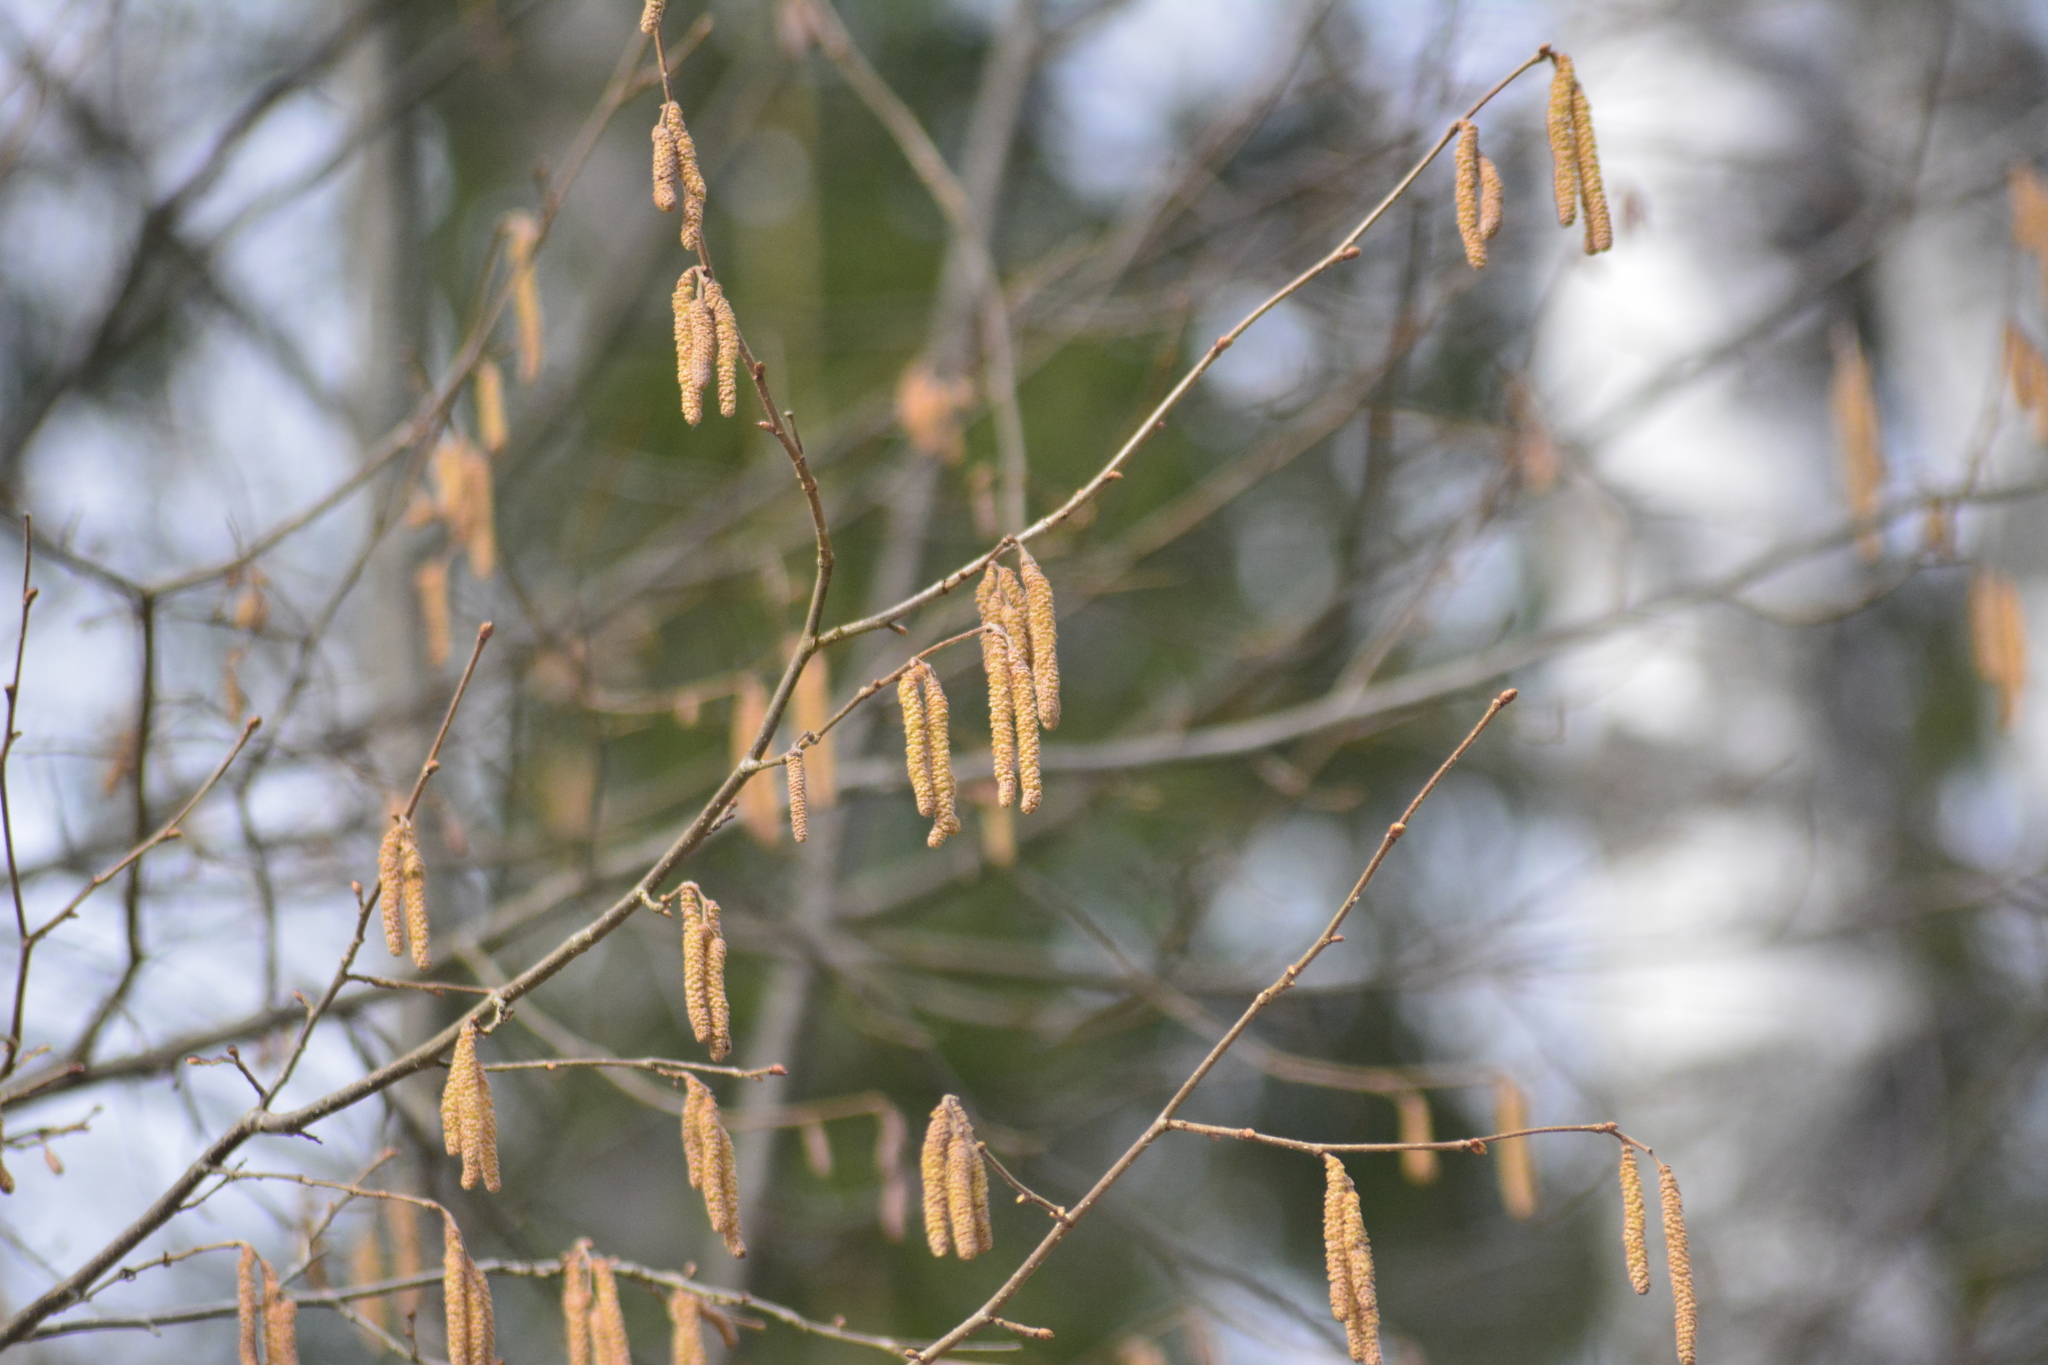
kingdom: Plantae
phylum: Tracheophyta
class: Magnoliopsida
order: Fagales
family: Betulaceae
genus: Corylus
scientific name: Corylus avellana
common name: European hazel
